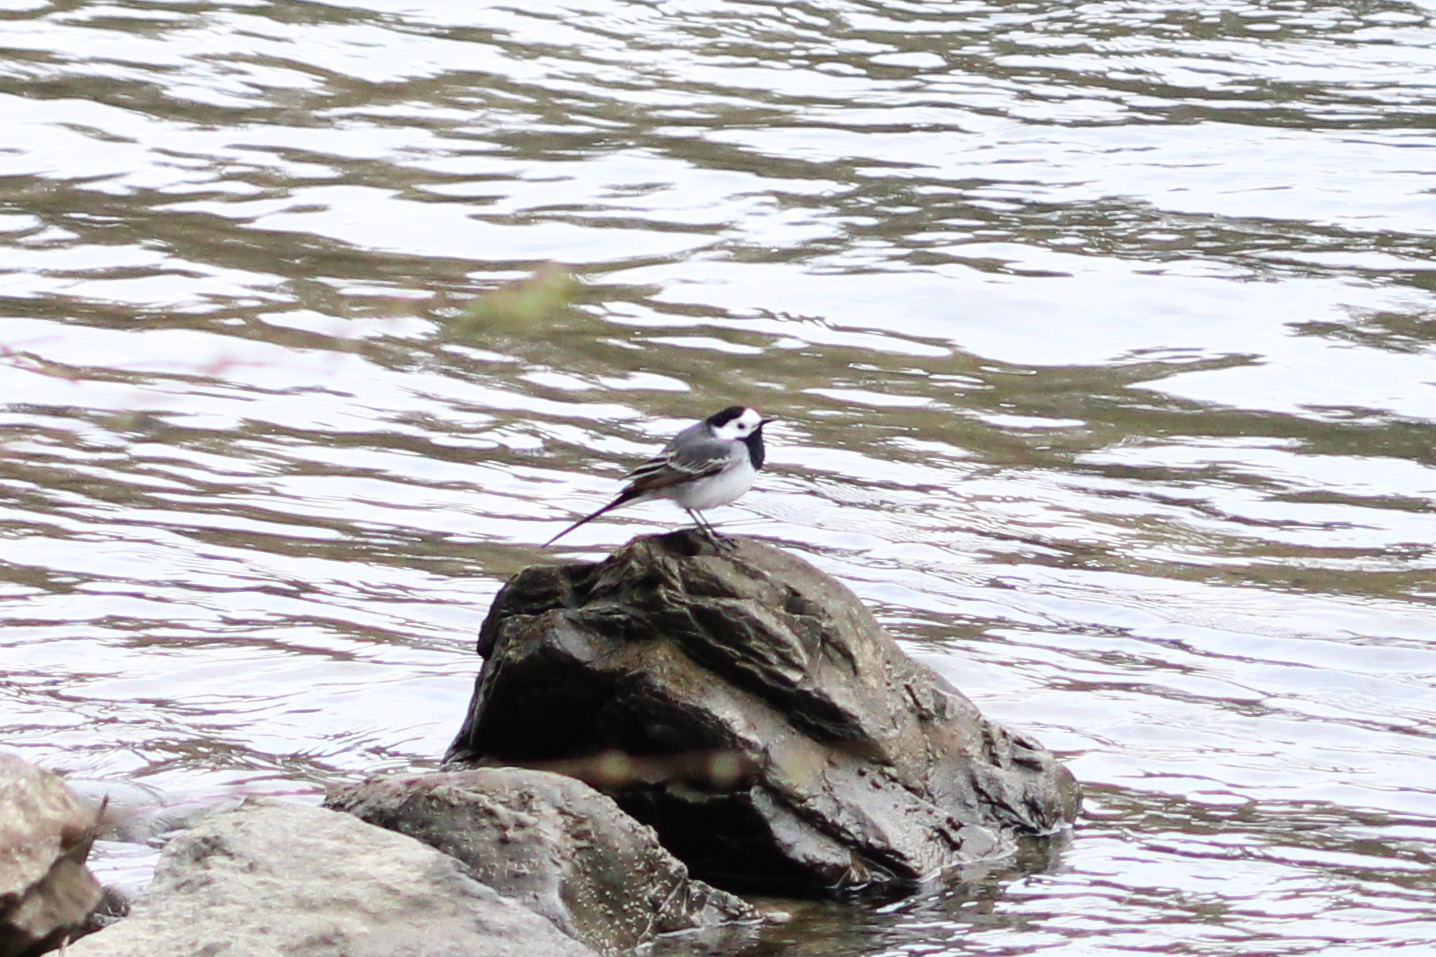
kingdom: Animalia
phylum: Chordata
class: Aves
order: Passeriformes
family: Motacillidae
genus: Motacilla
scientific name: Motacilla alba
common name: White wagtail
